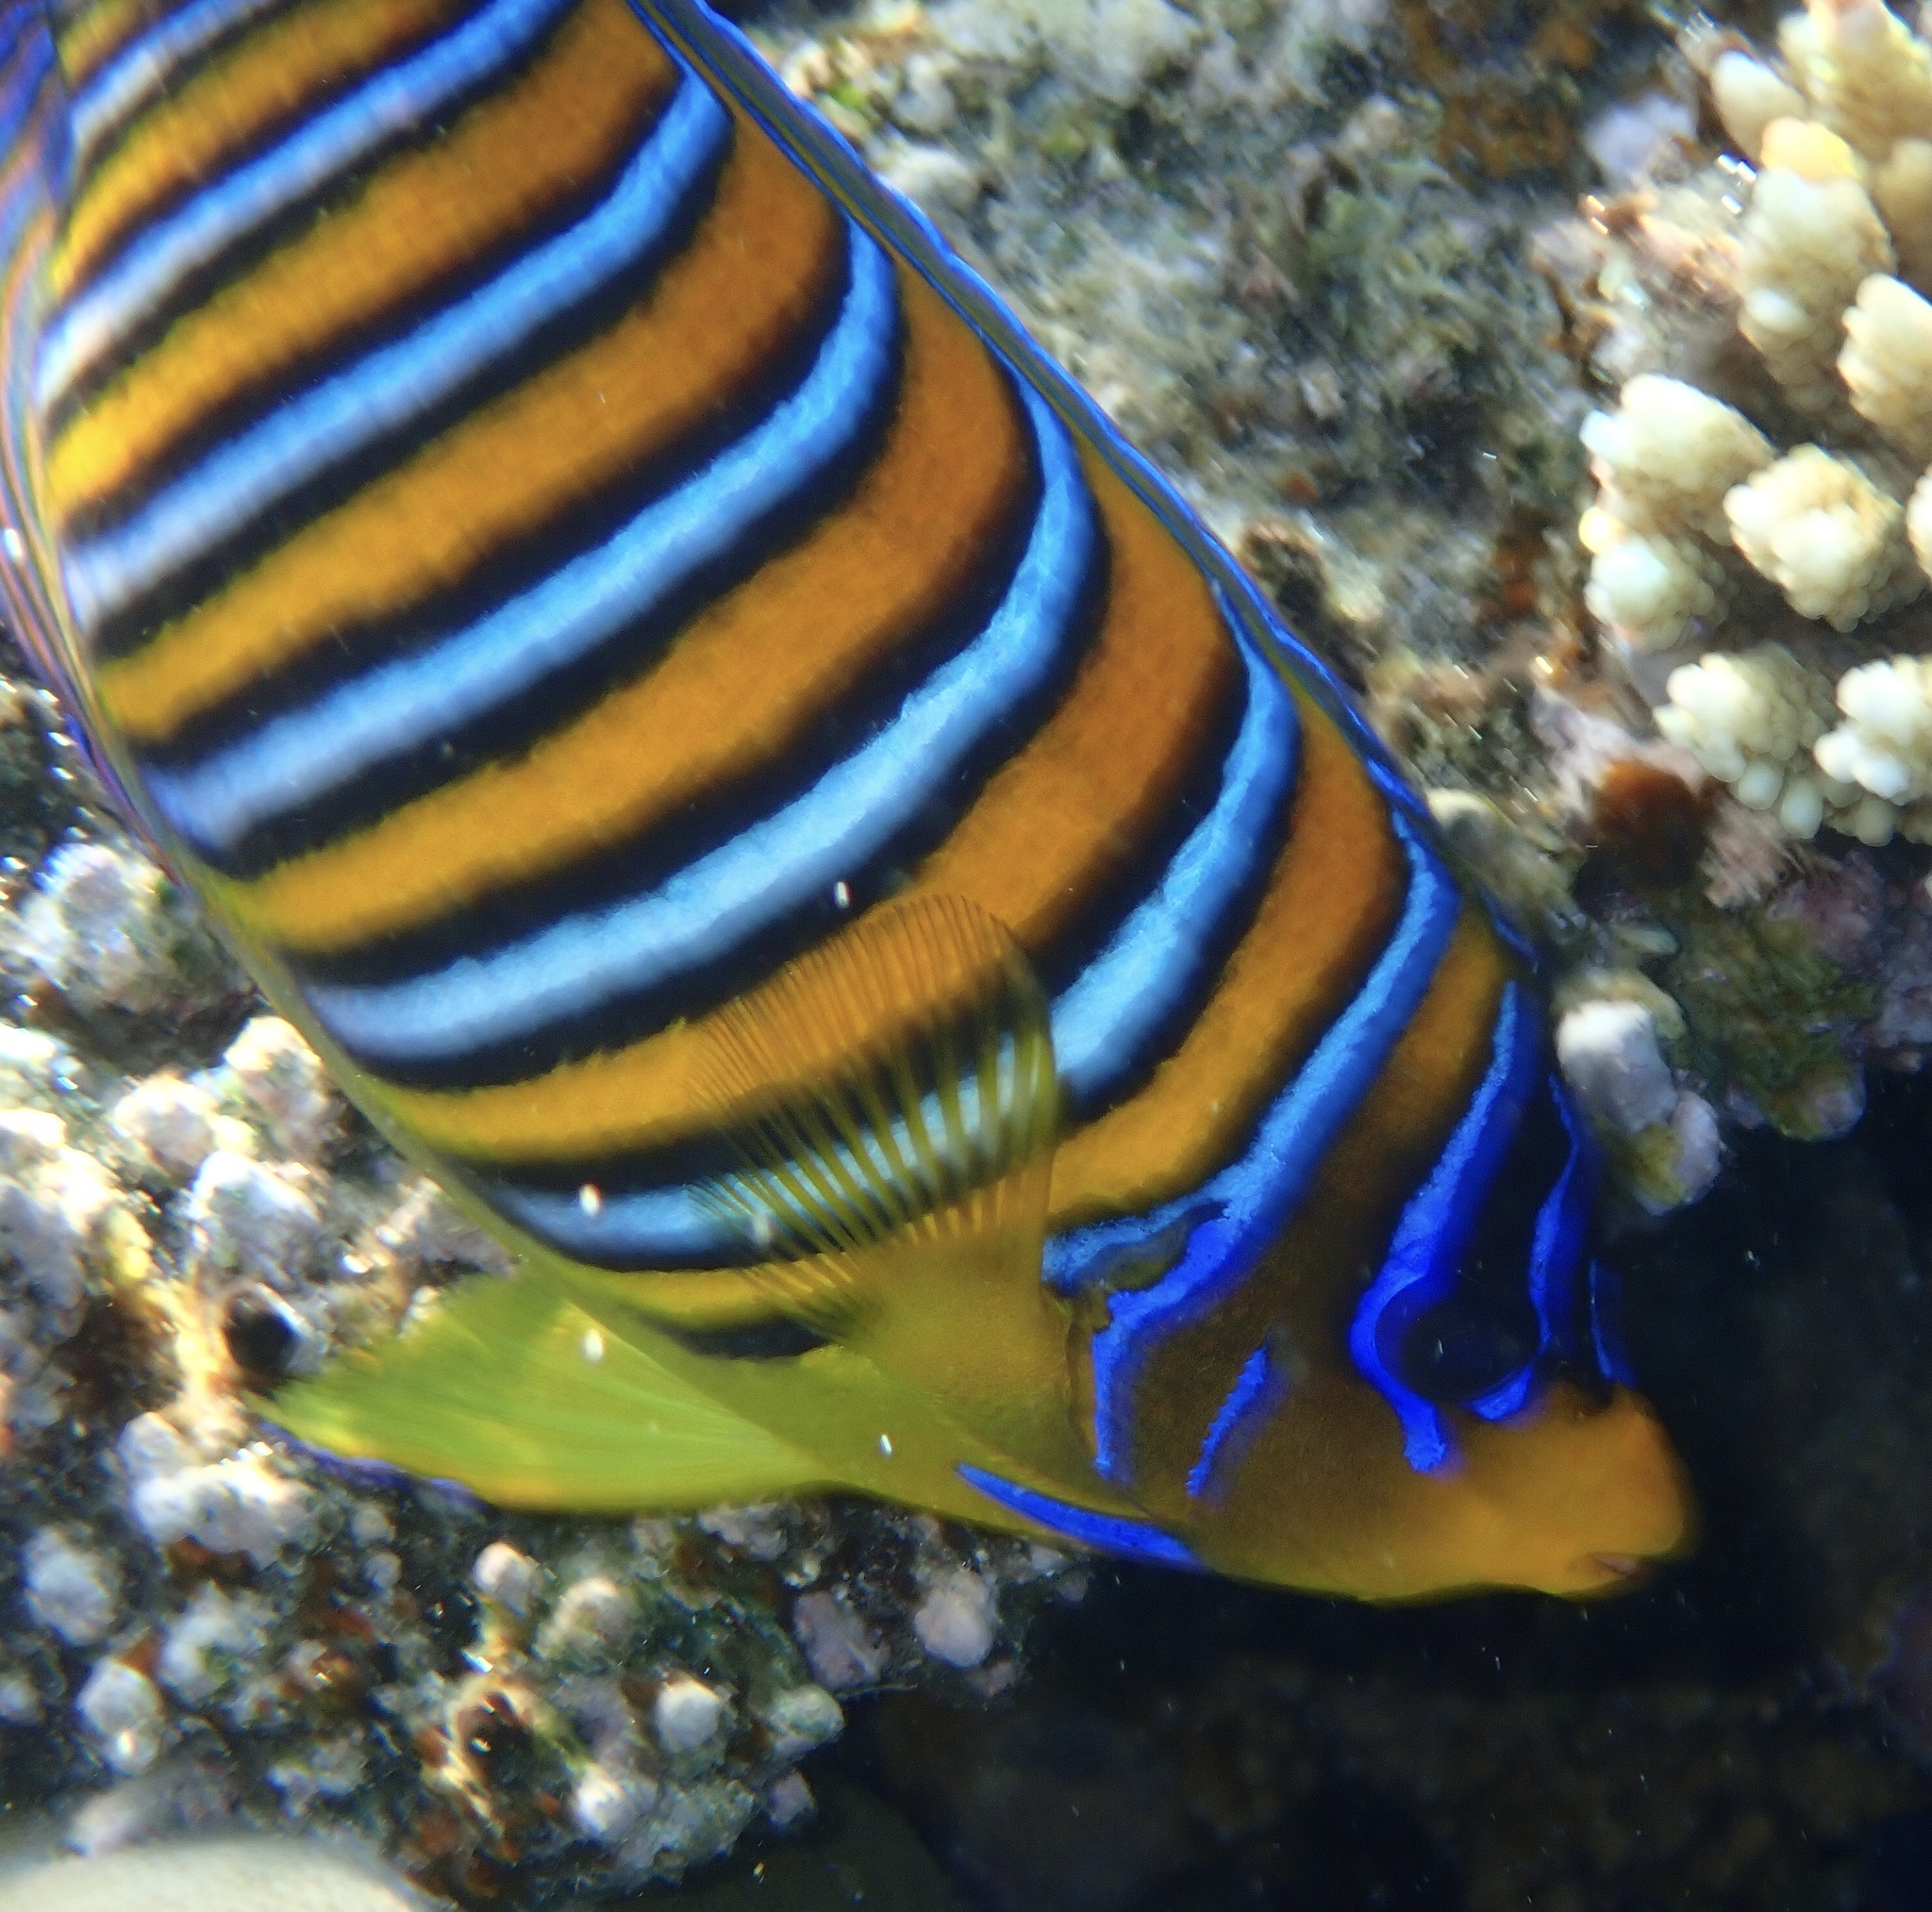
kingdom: Animalia
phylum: Chordata
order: Perciformes
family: Pomacanthidae
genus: Pygoplites
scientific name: Pygoplites diacanthus
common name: Regal angelfish
